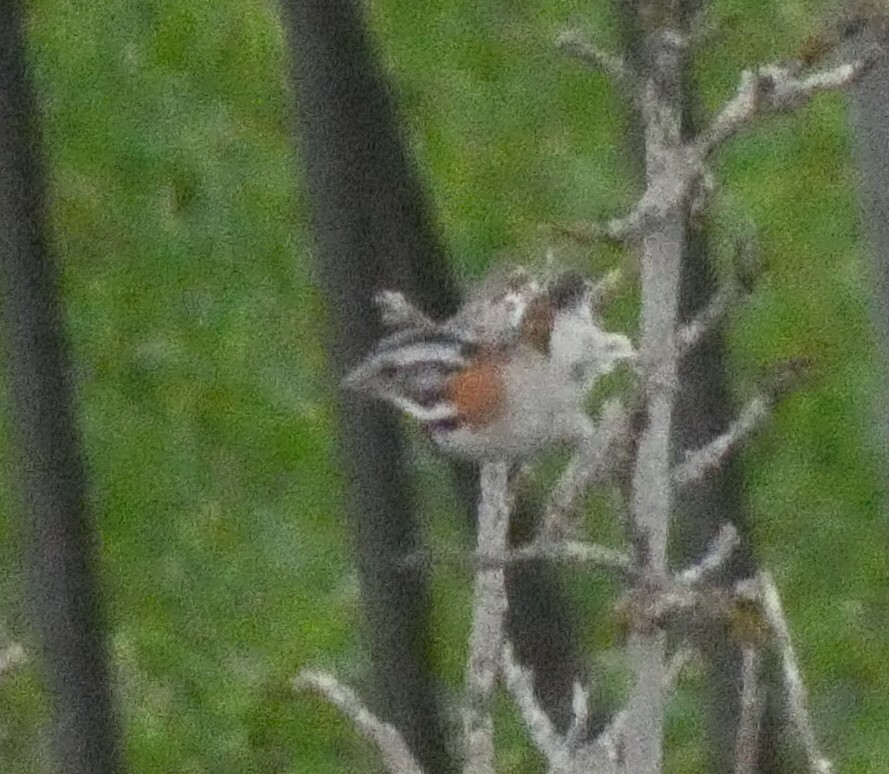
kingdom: Animalia
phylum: Chordata
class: Aves
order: Passeriformes
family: Passerellidae
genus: Zonotrichia
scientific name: Zonotrichia capensis
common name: Rufous-collared sparrow
